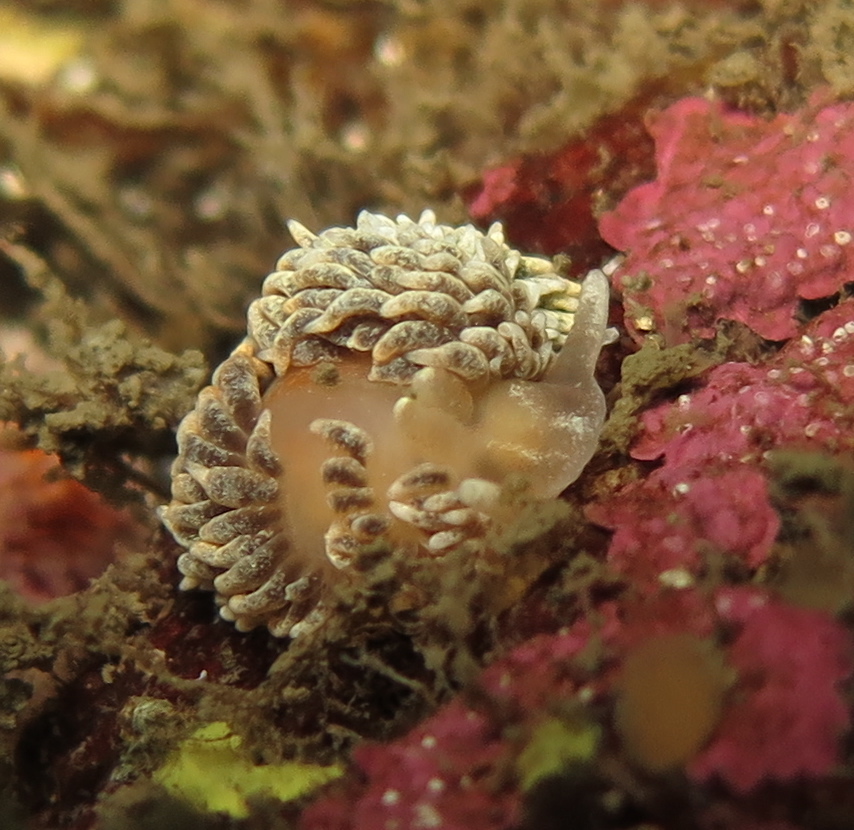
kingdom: Animalia
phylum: Mollusca
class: Gastropoda
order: Nudibranchia
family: Aeolidiidae
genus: Aeolidiella
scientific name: Aeolidiella glauca
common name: Orange-brown aeolid
